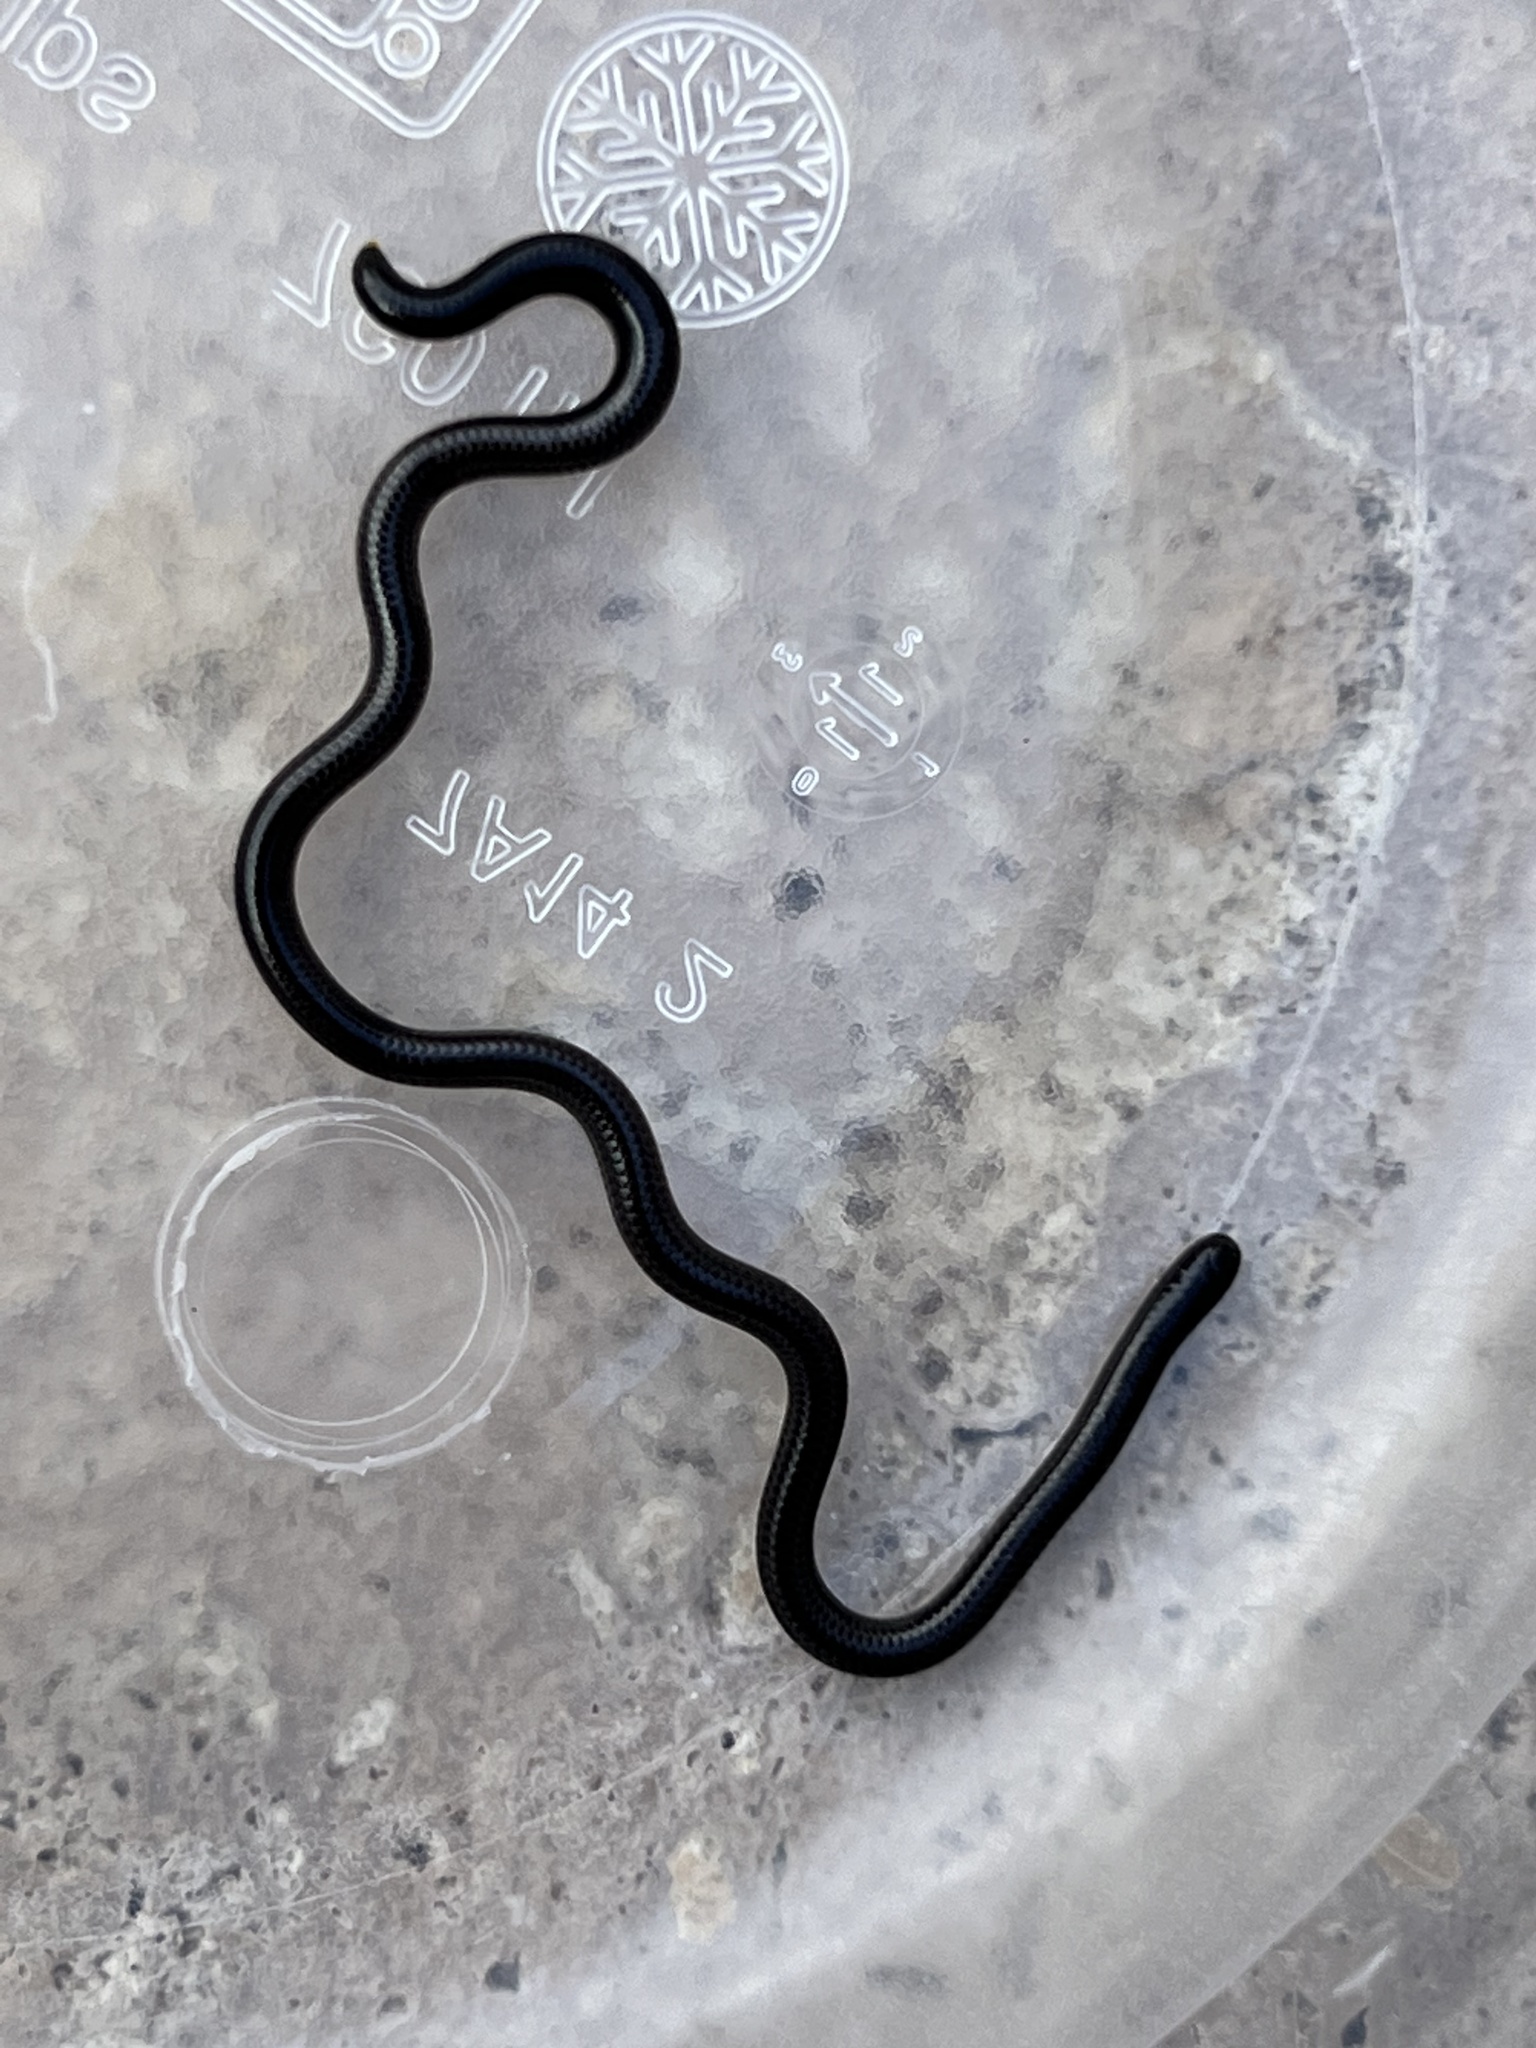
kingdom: Animalia
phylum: Chordata
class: Squamata
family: Leptotyphlopidae
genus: Epictia
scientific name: Epictia ater
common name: Black blind snake
